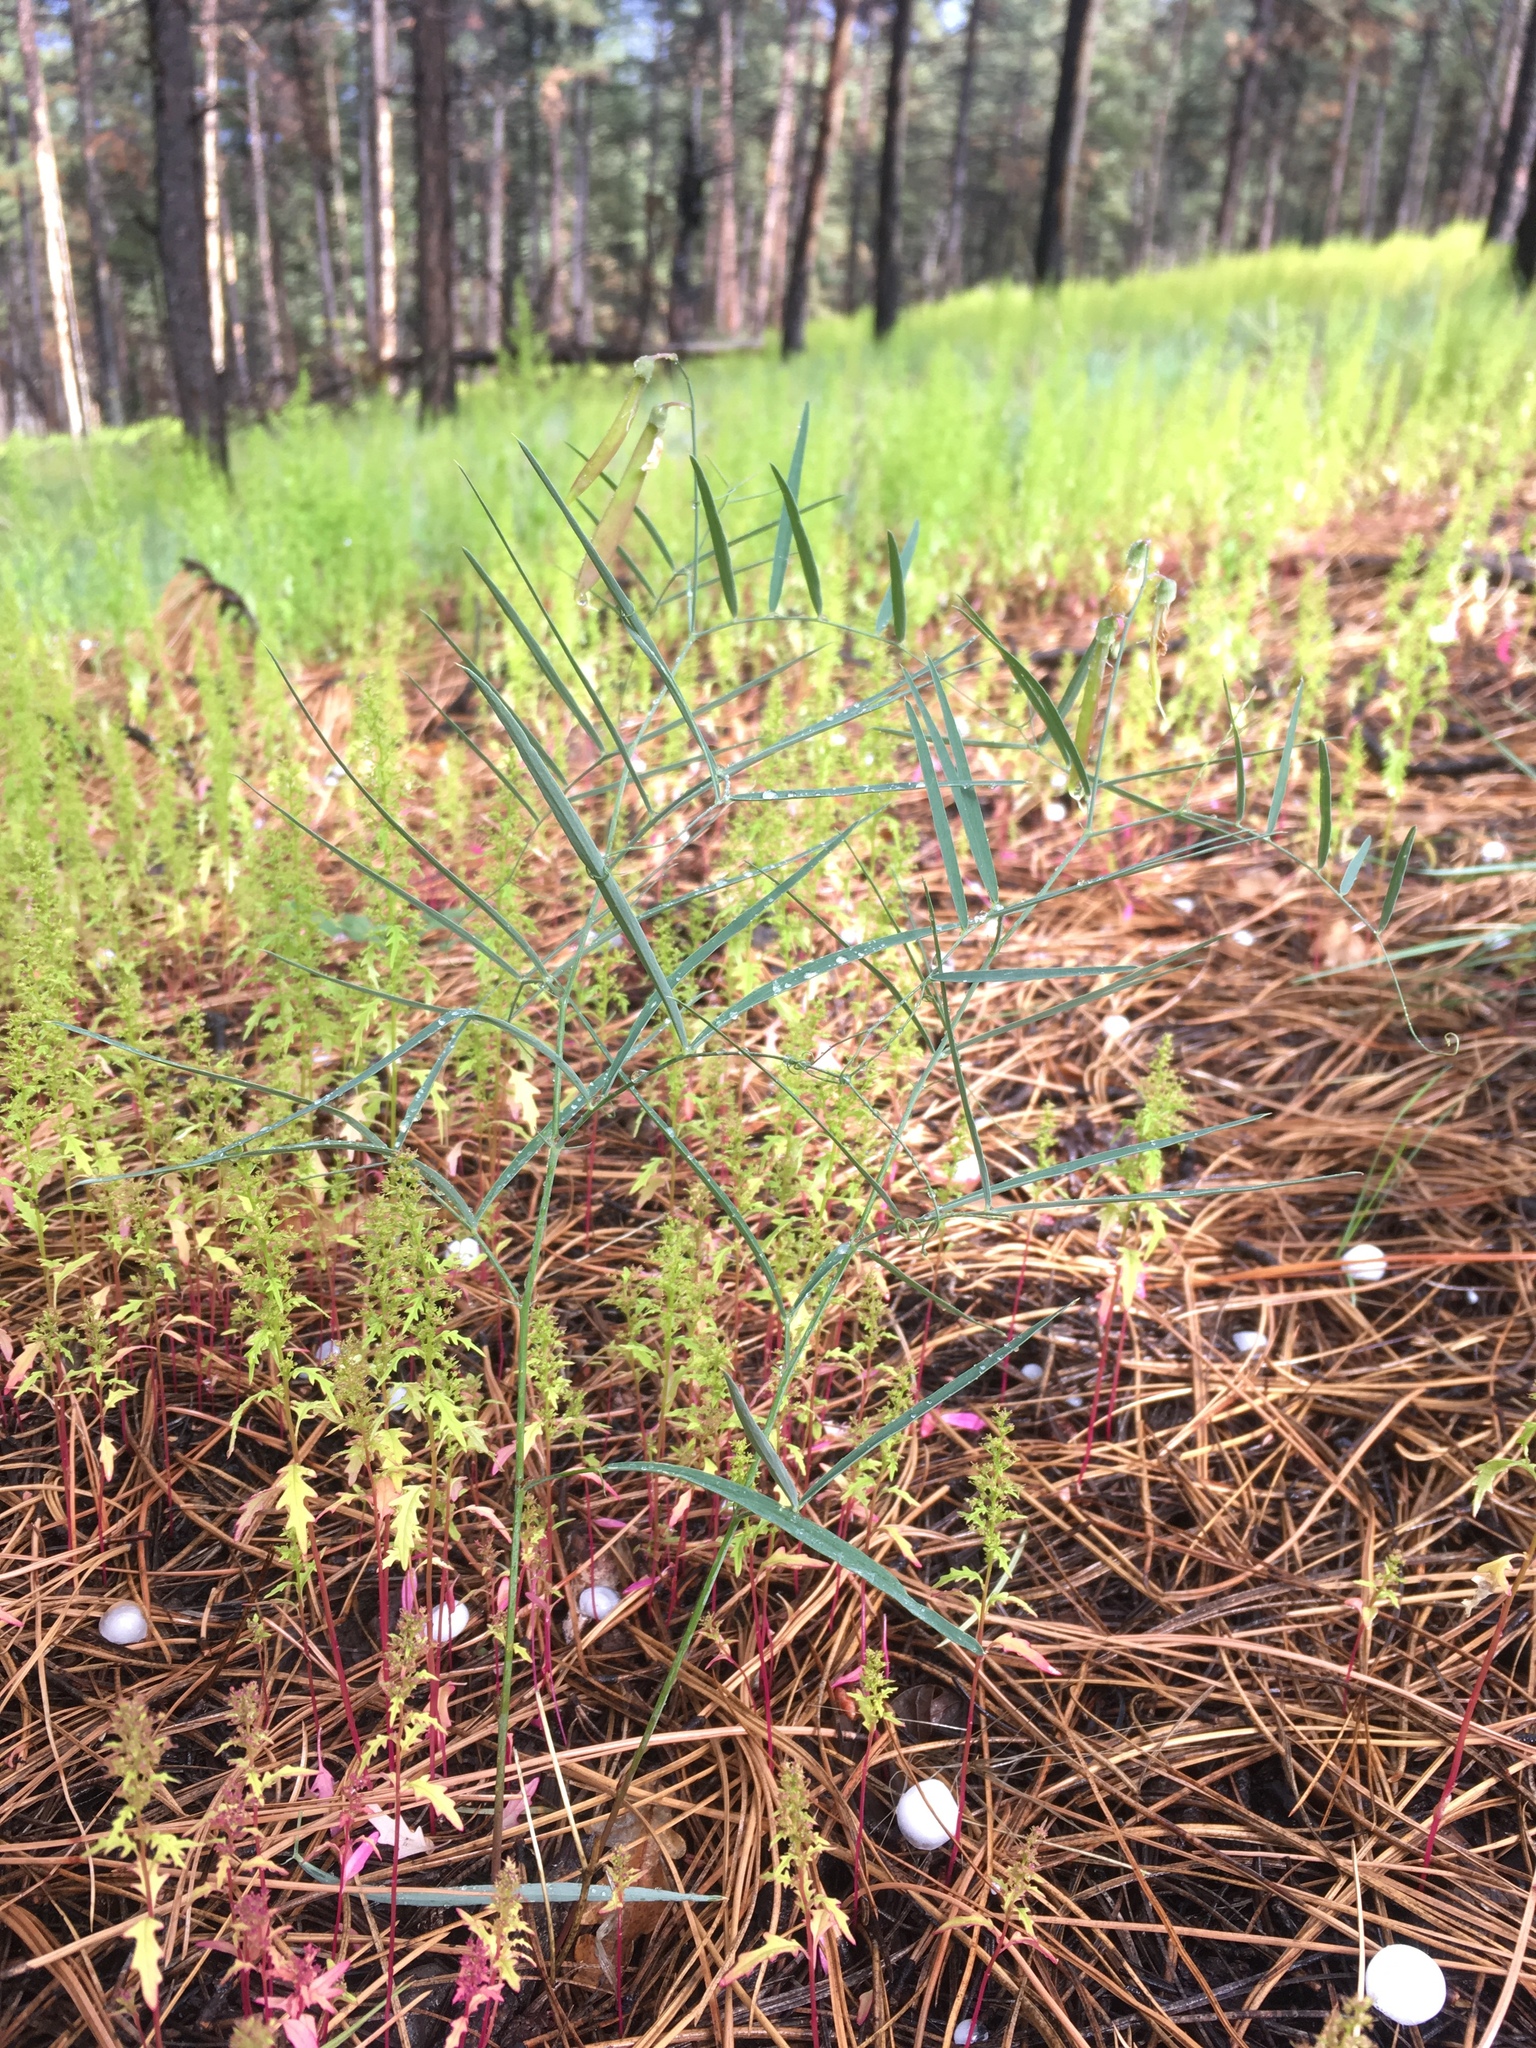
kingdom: Plantae
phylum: Tracheophyta
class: Magnoliopsida
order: Fabales
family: Fabaceae
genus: Lathyrus
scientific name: Lathyrus graminifolius
